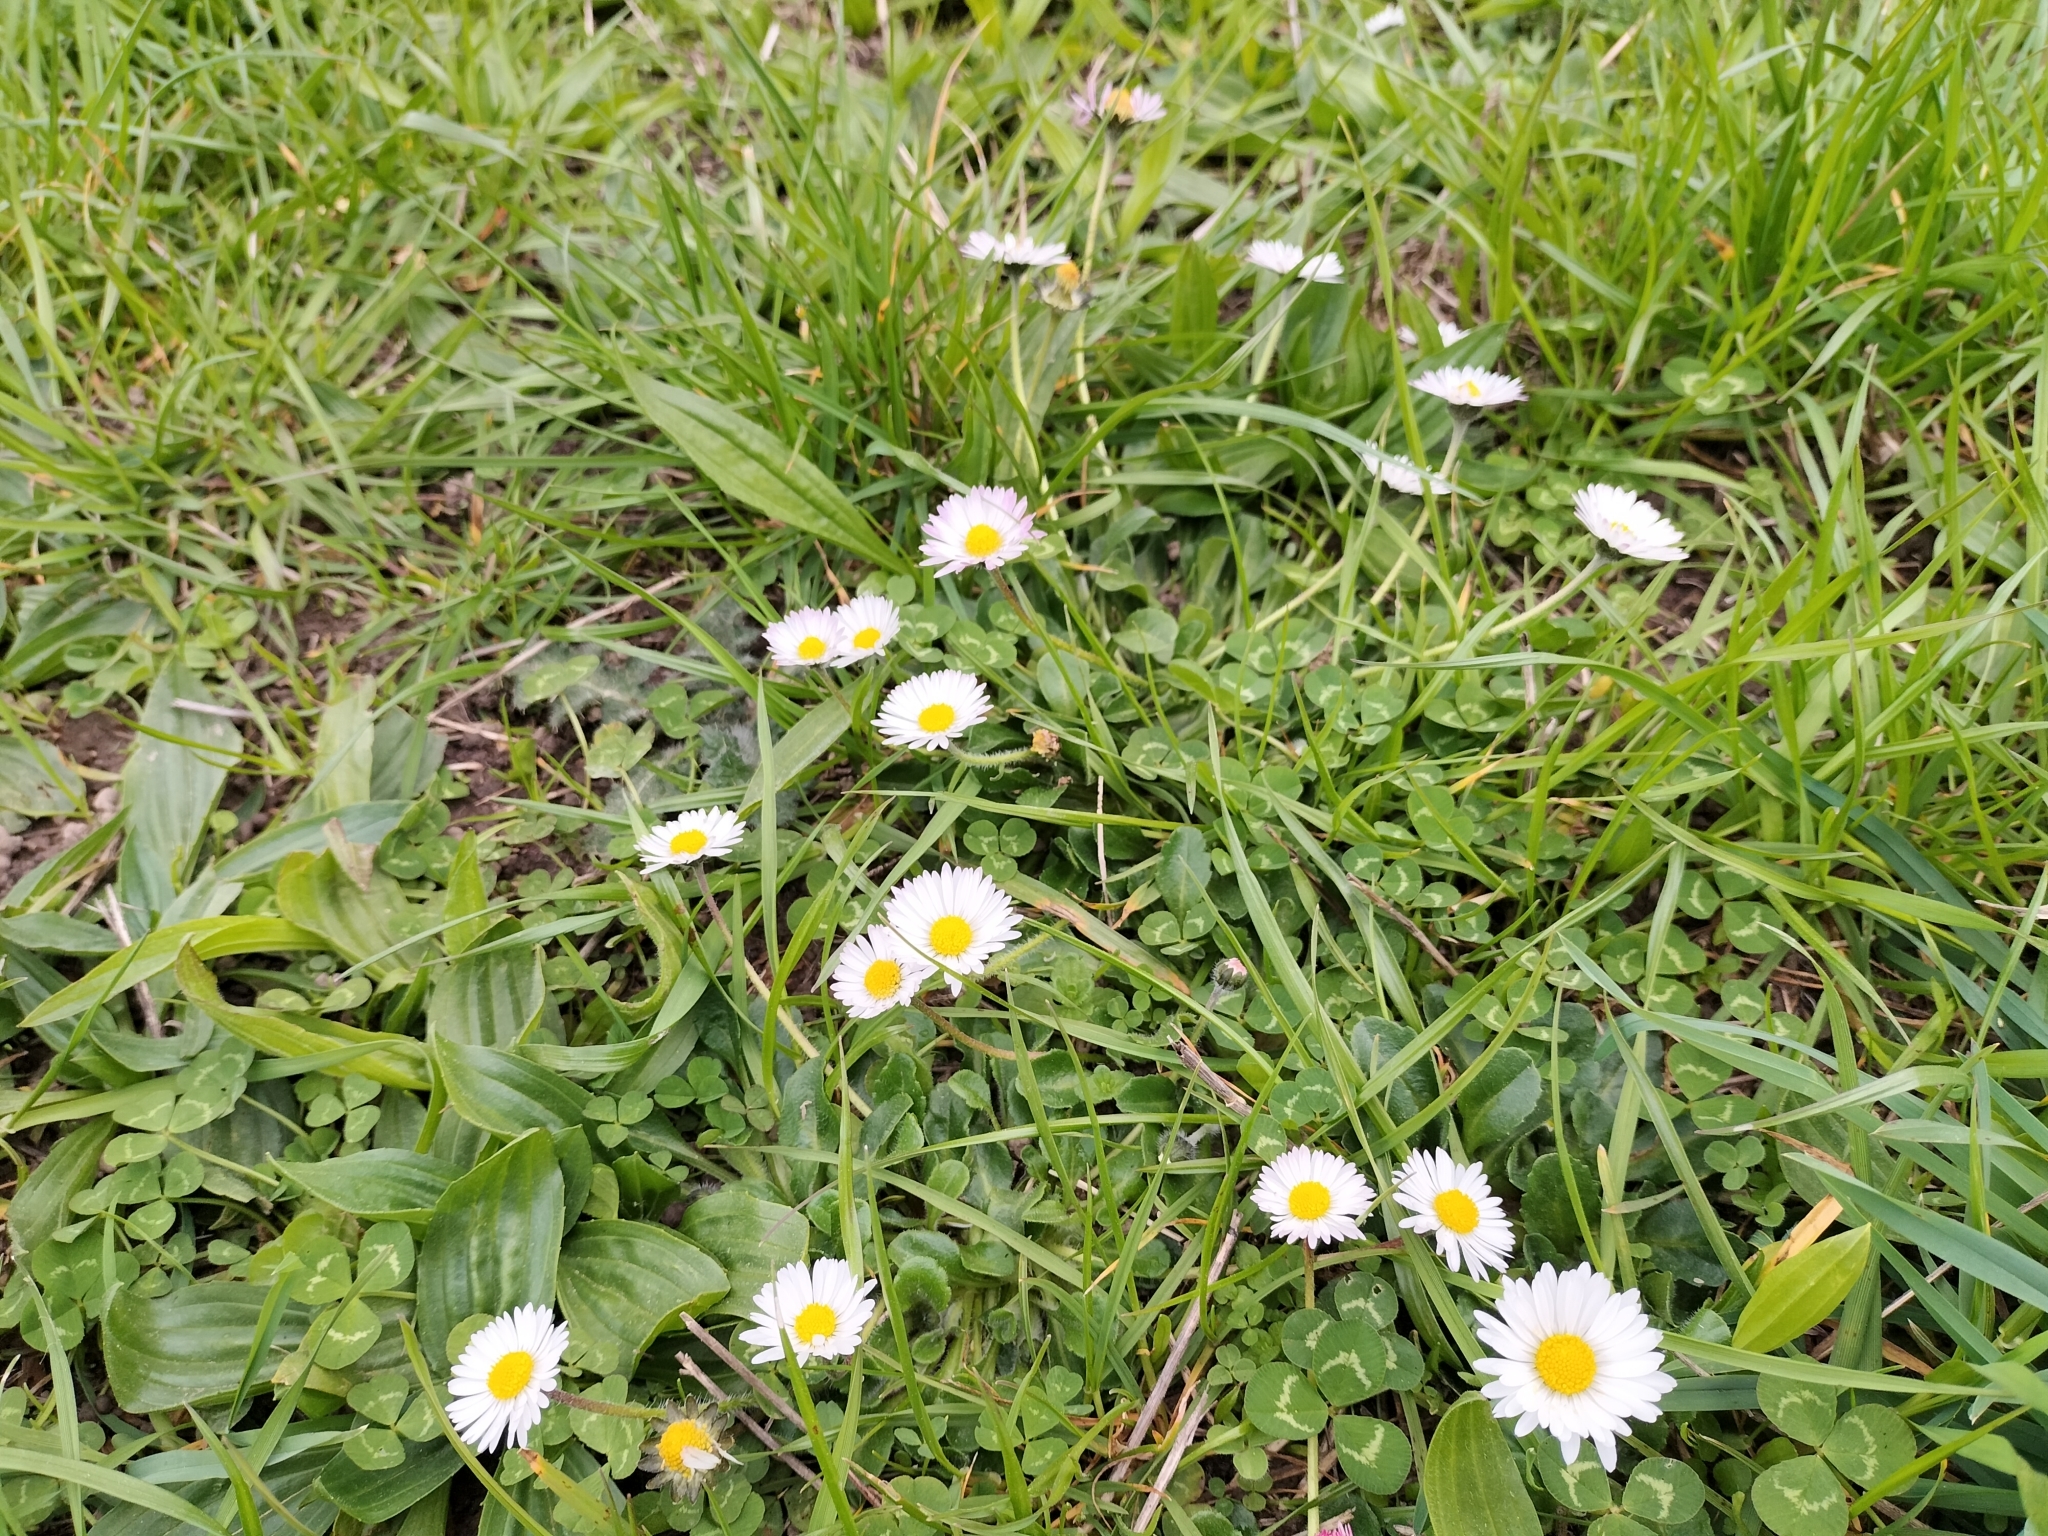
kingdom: Plantae
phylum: Tracheophyta
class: Magnoliopsida
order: Asterales
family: Asteraceae
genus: Bellis
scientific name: Bellis perennis
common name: Lawndaisy
